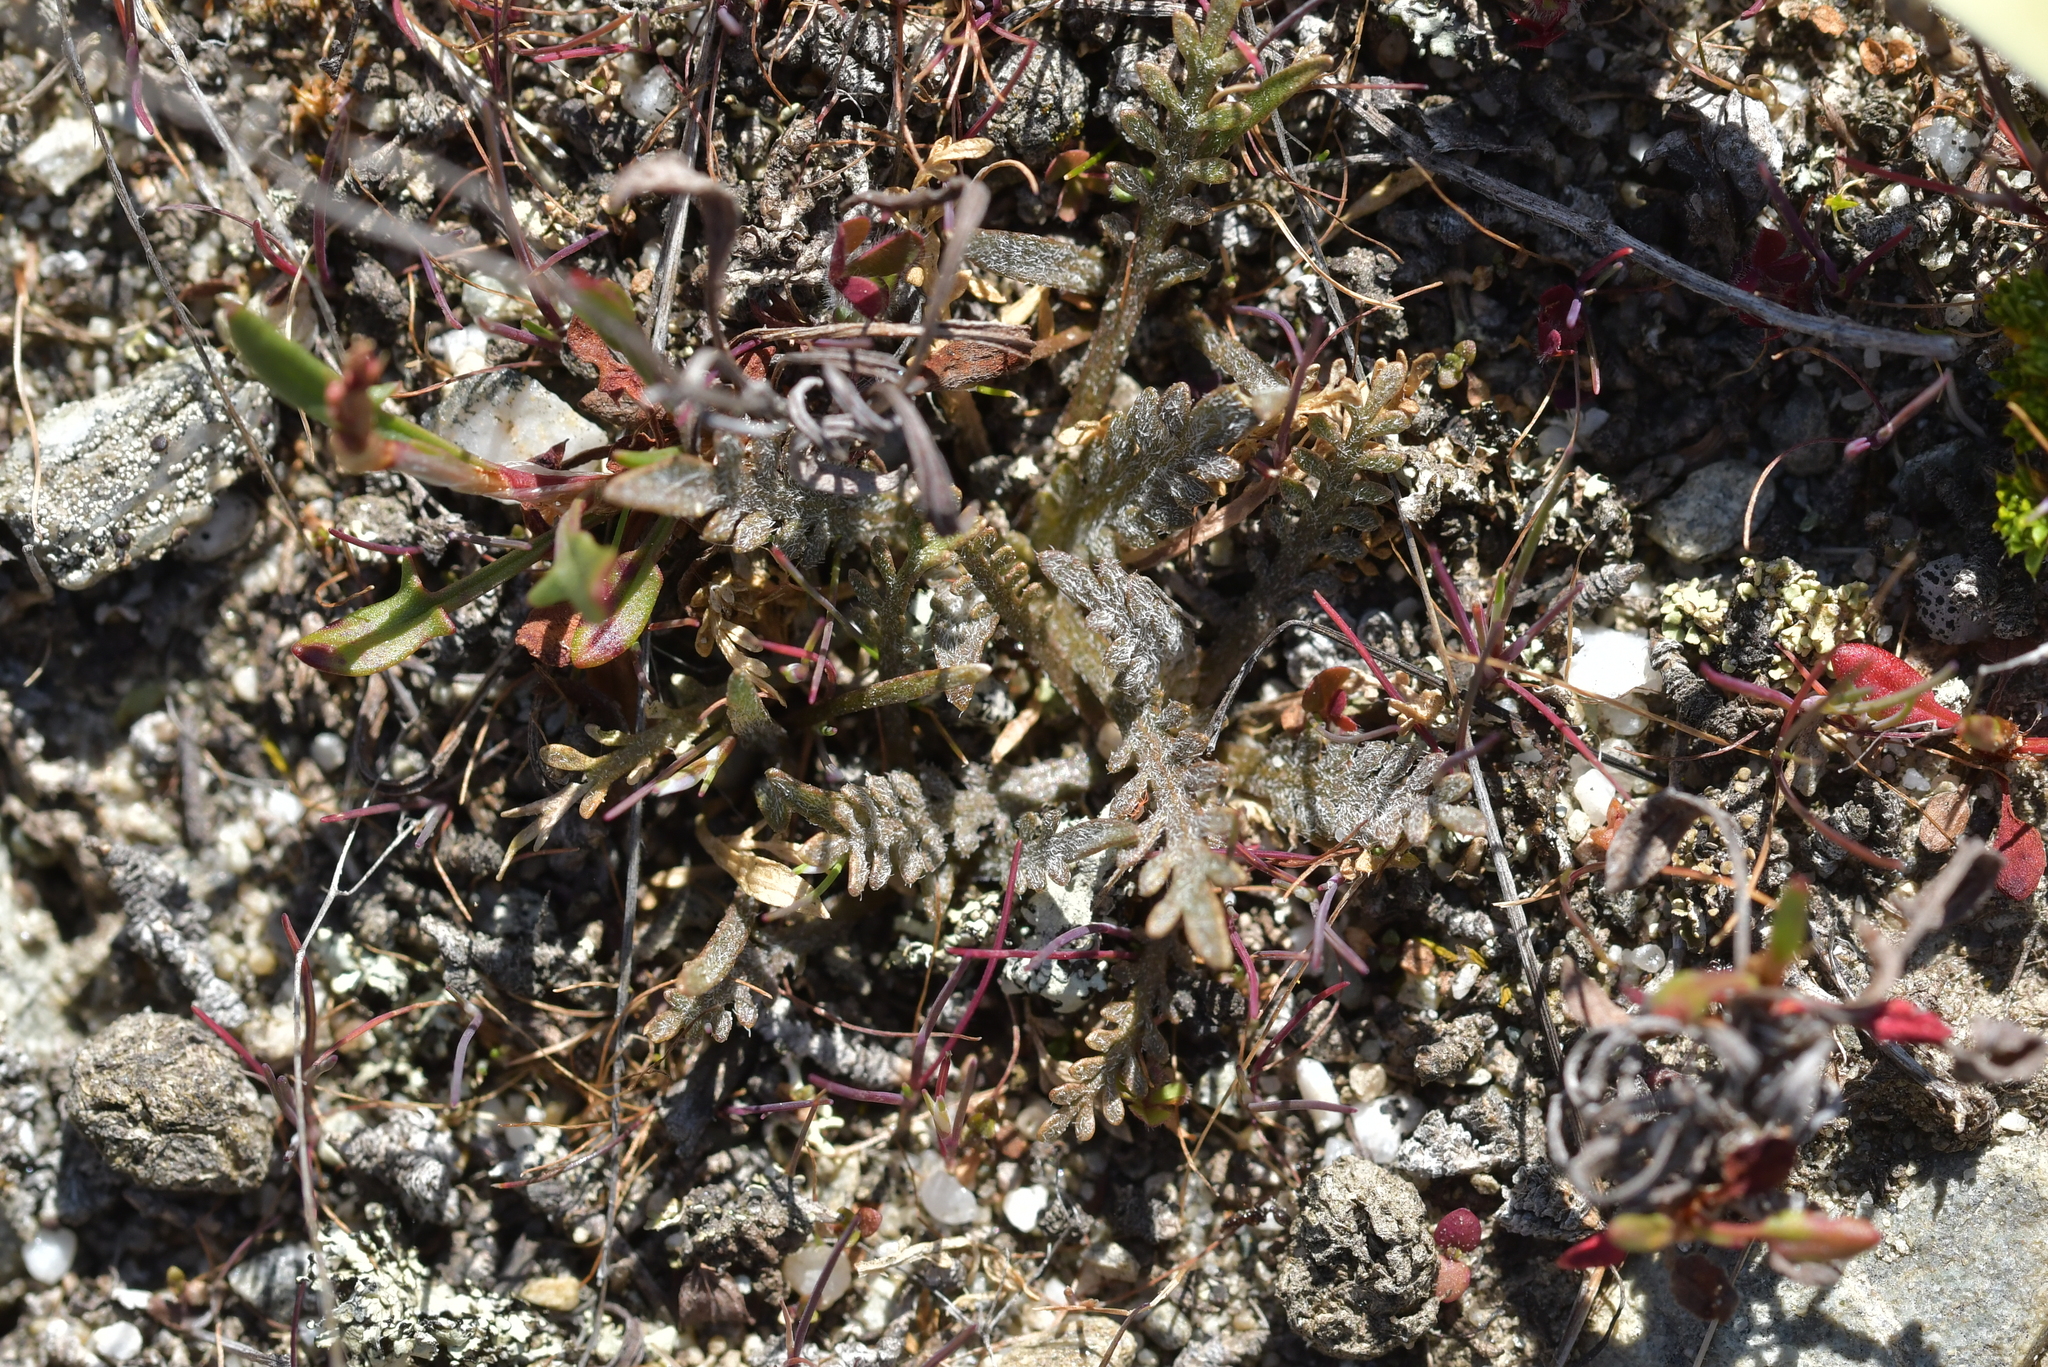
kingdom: Plantae
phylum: Tracheophyta
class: Magnoliopsida
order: Brassicales
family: Brassicaceae
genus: Lepidium
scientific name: Lepidium sisymbrioides
